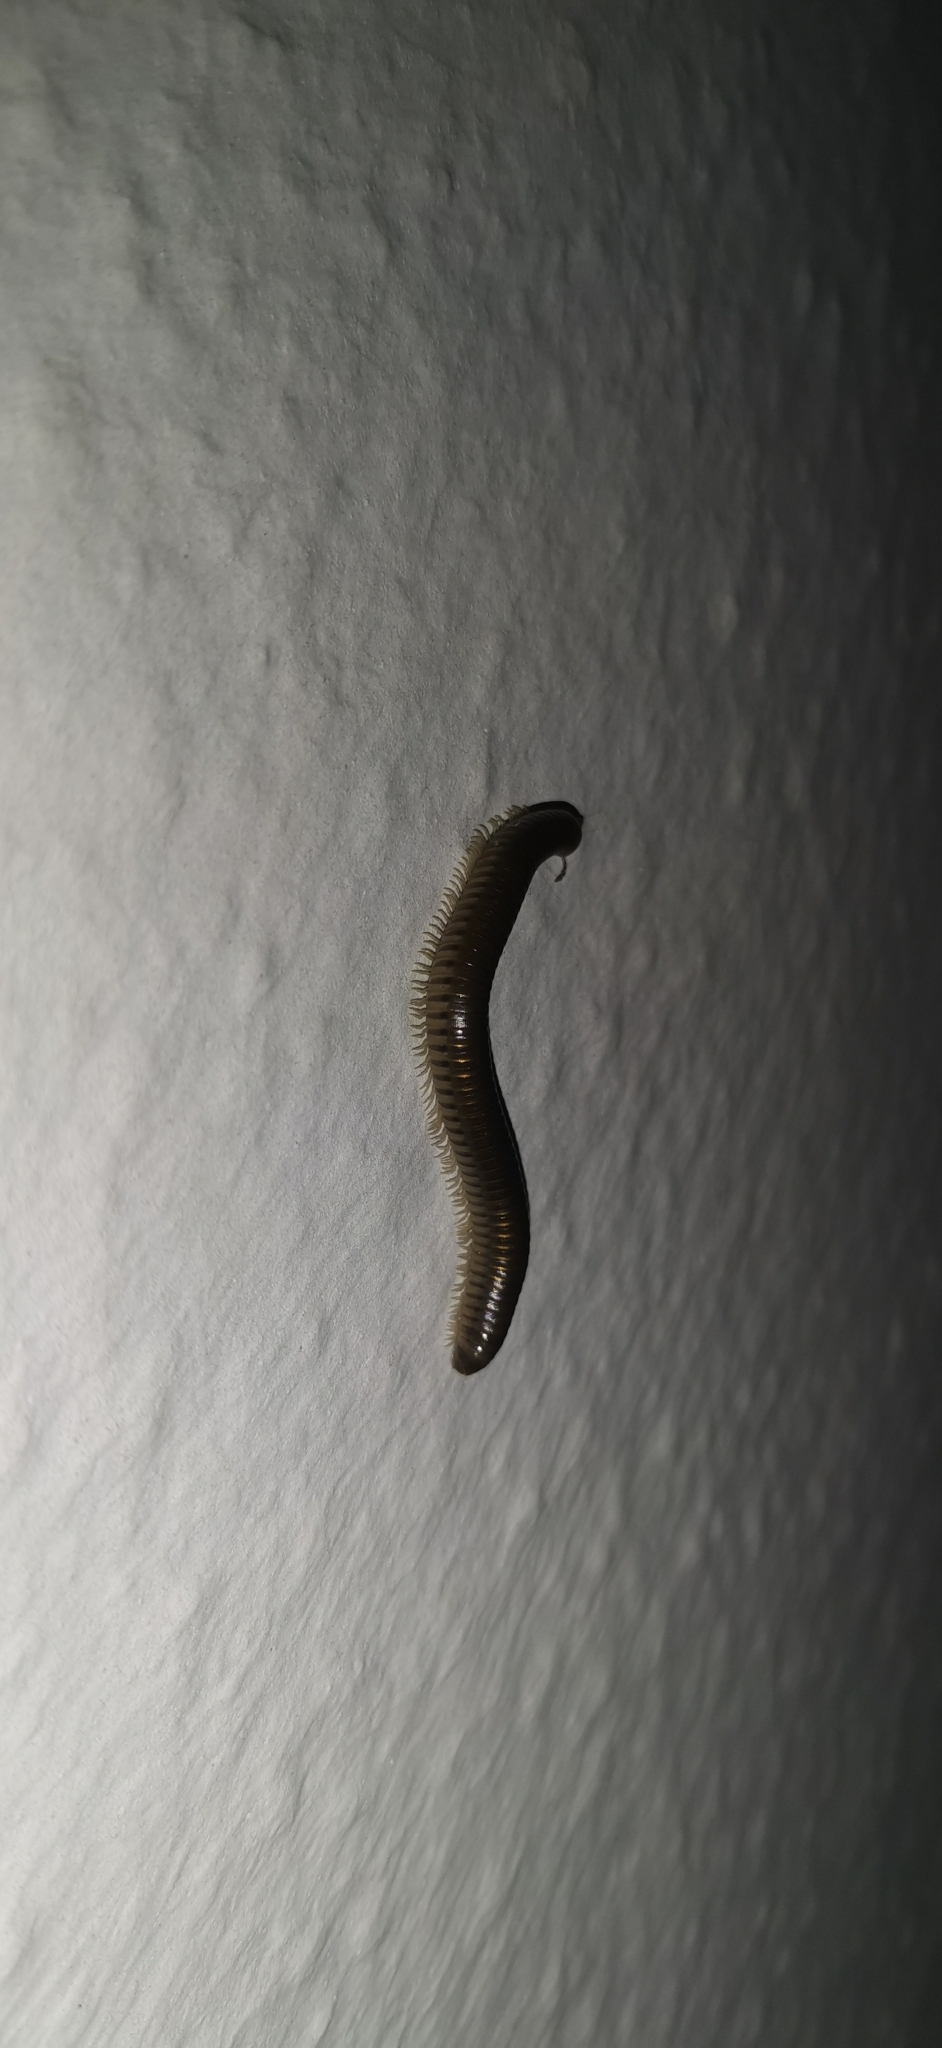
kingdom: Animalia
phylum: Arthropoda
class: Diplopoda
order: Julida
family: Julidae
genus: Pachyiulus
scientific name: Pachyiulus flavipes
